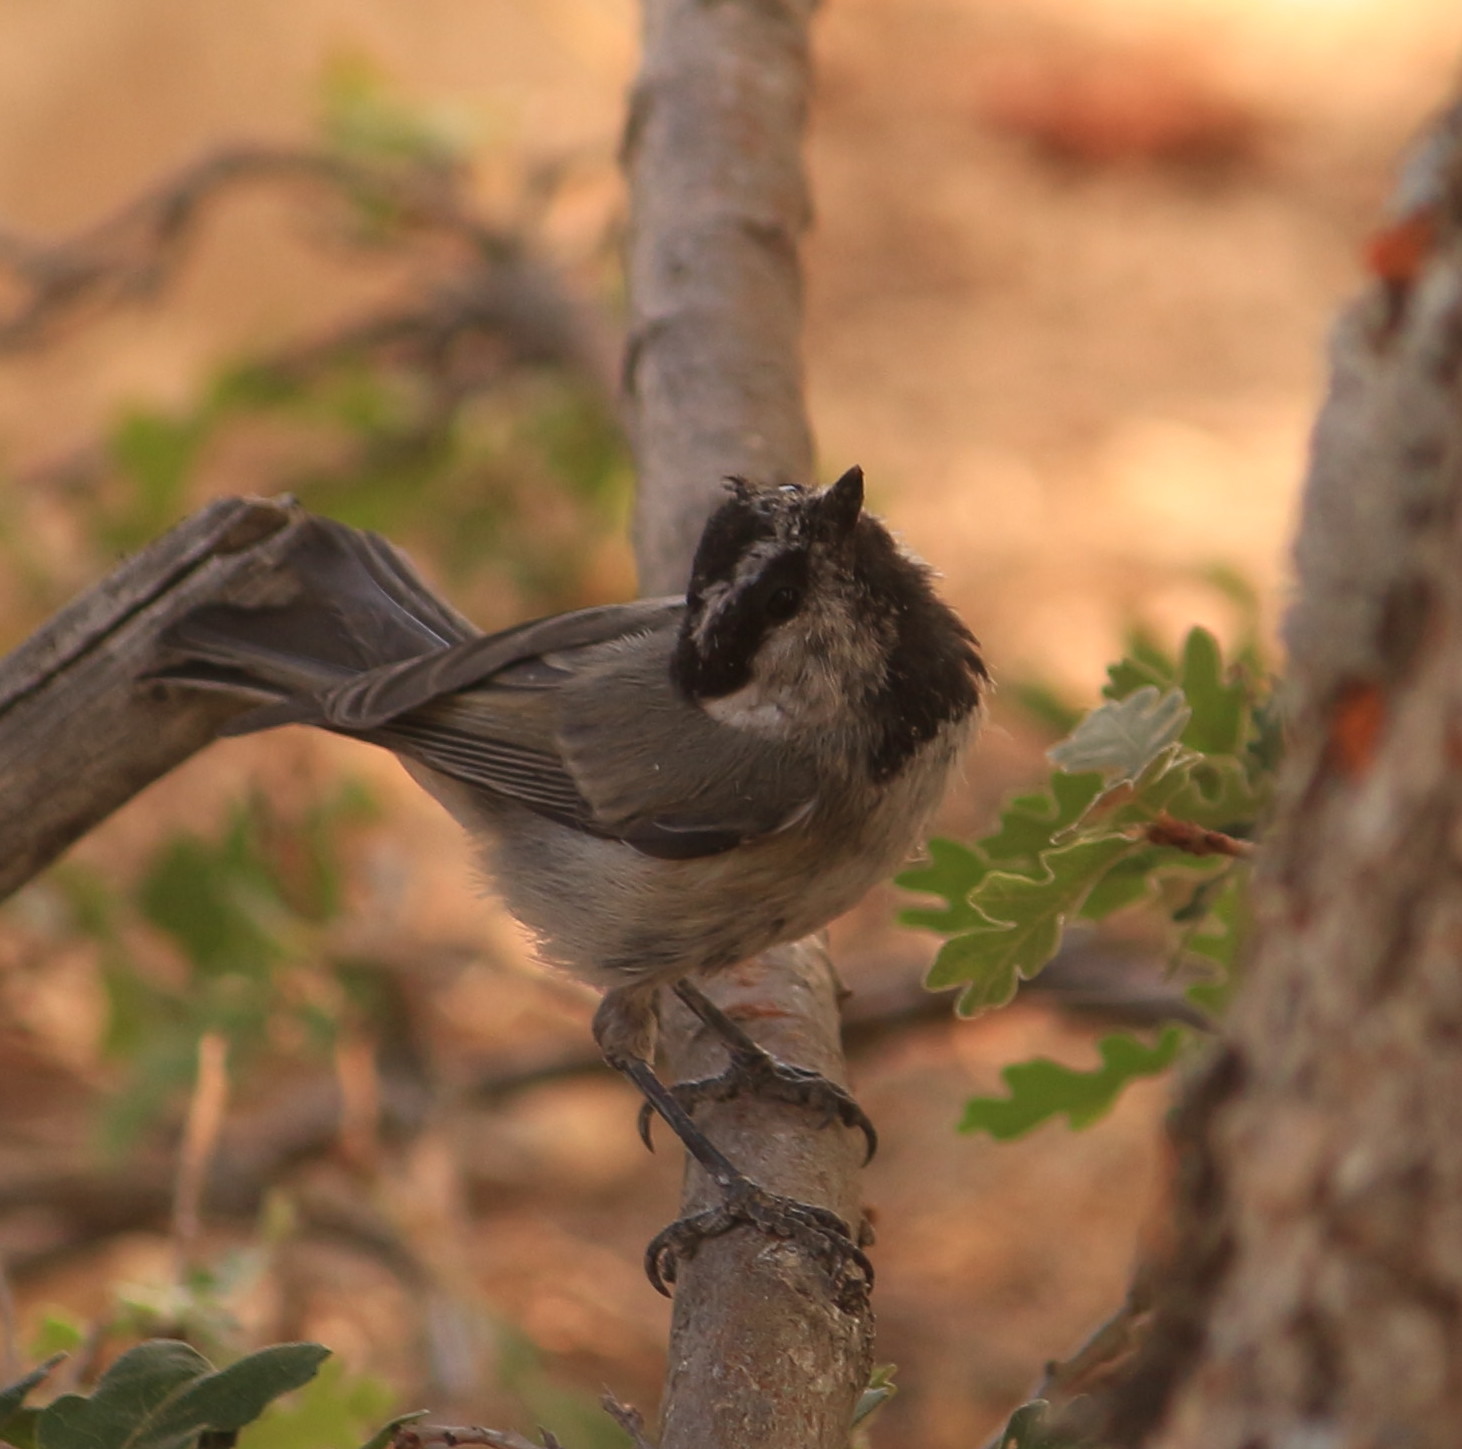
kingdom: Animalia
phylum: Chordata
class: Aves
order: Passeriformes
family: Paridae
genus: Poecile
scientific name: Poecile gambeli
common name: Mountain chickadee
